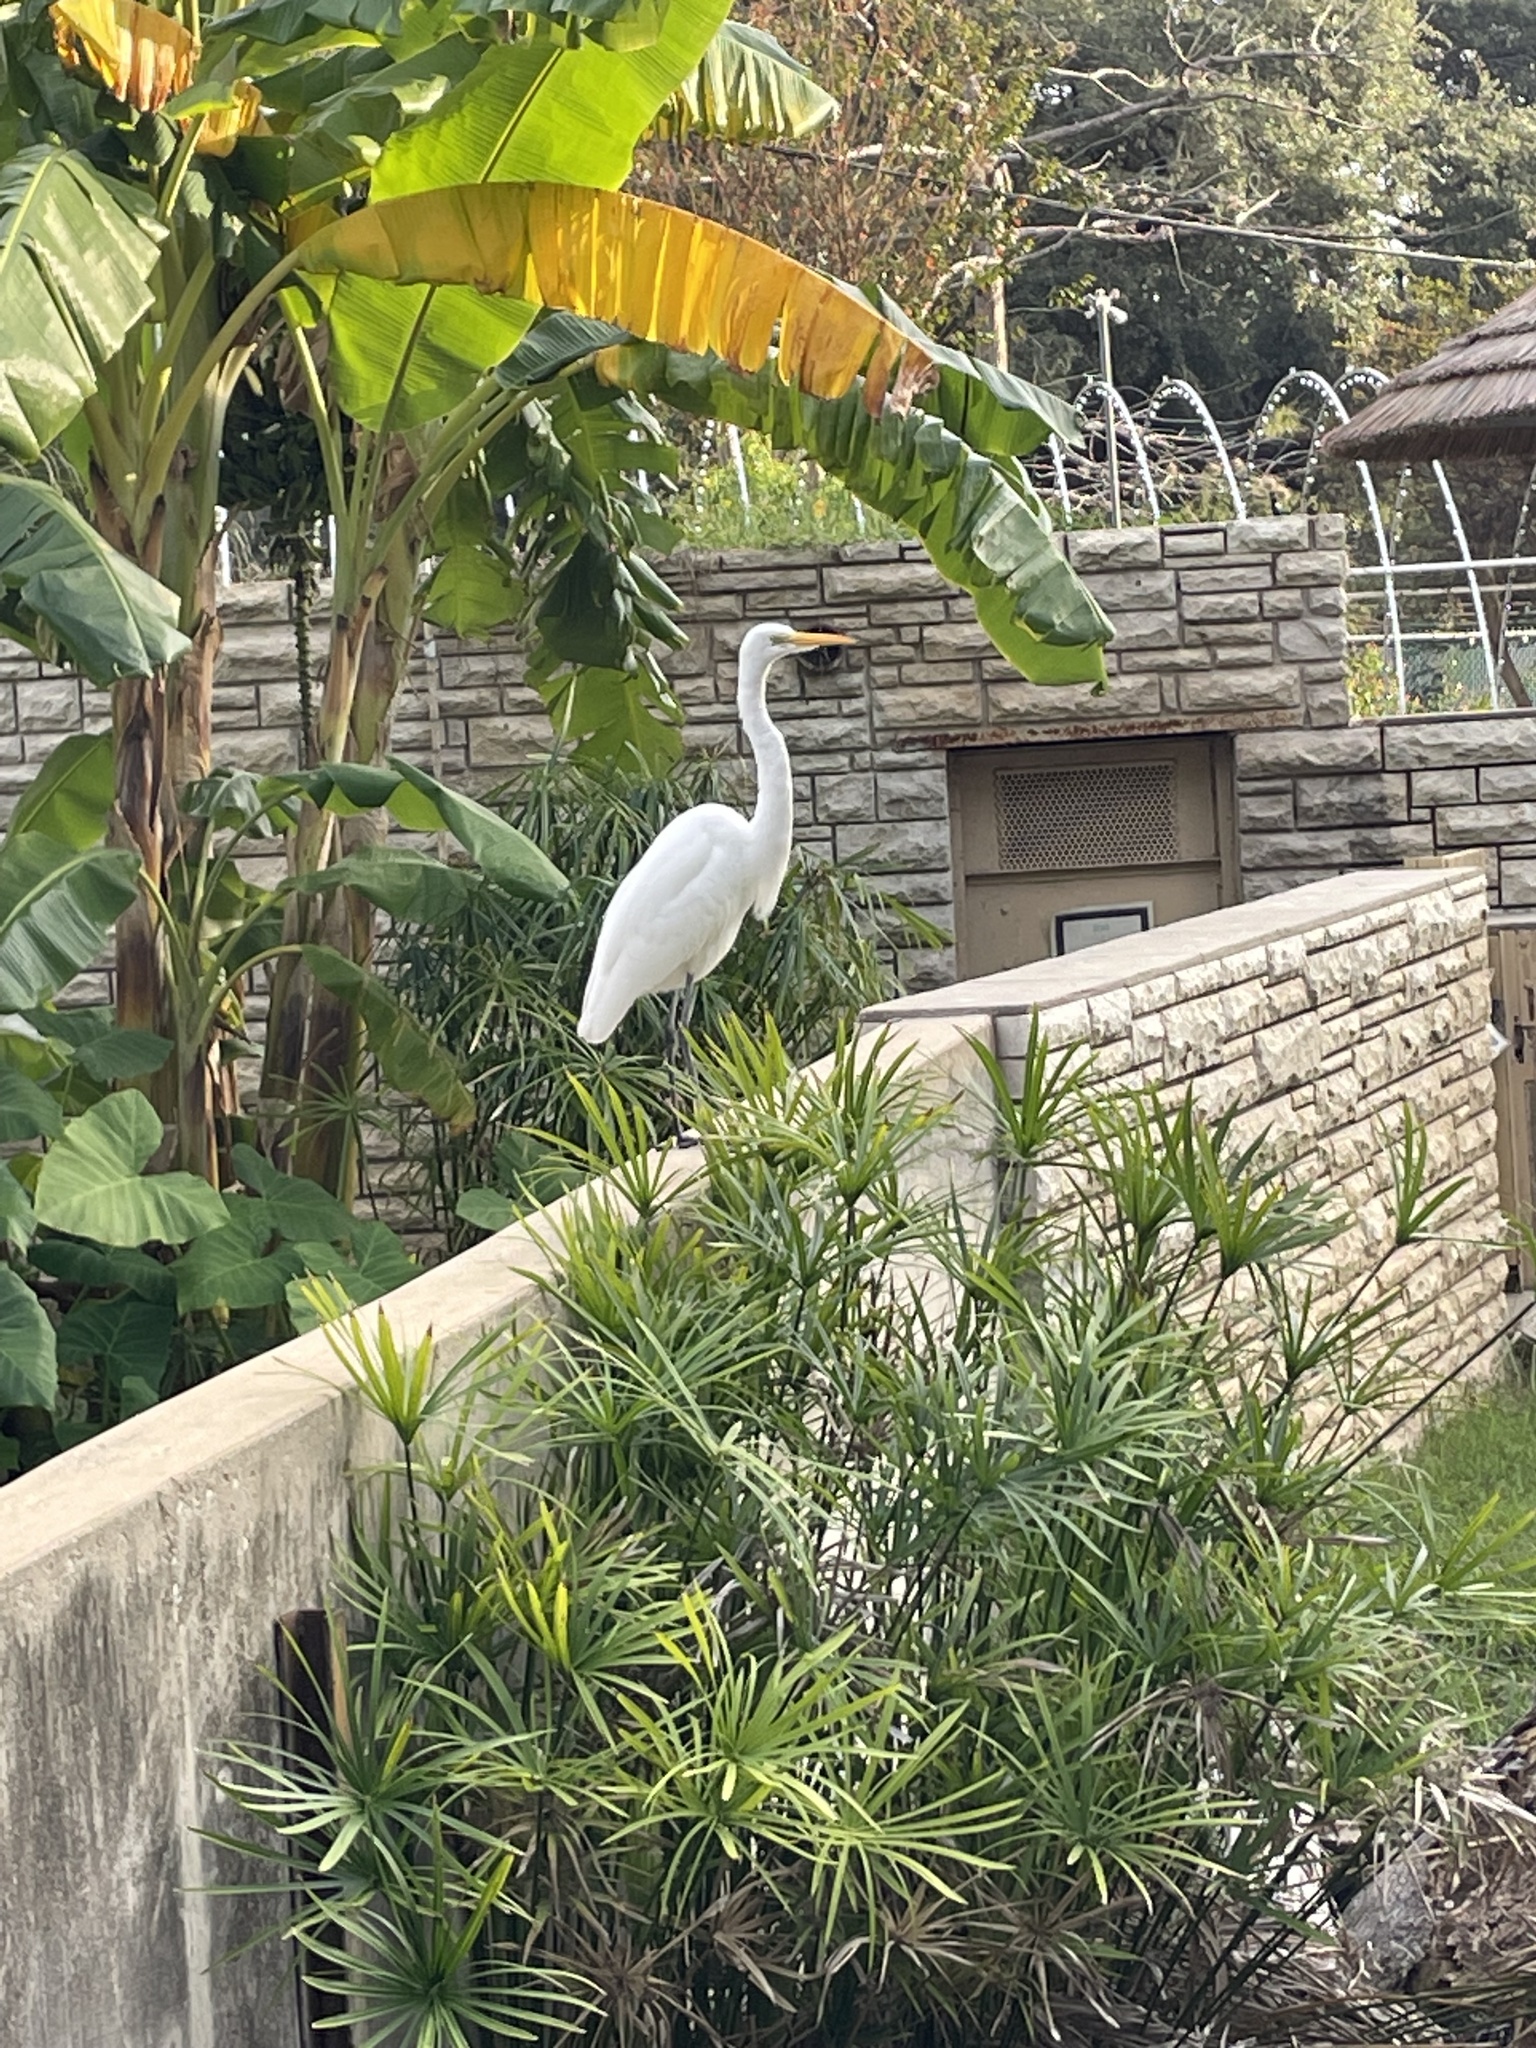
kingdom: Animalia
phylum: Chordata
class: Aves
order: Pelecaniformes
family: Ardeidae
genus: Ardea
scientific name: Ardea alba
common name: Great egret
